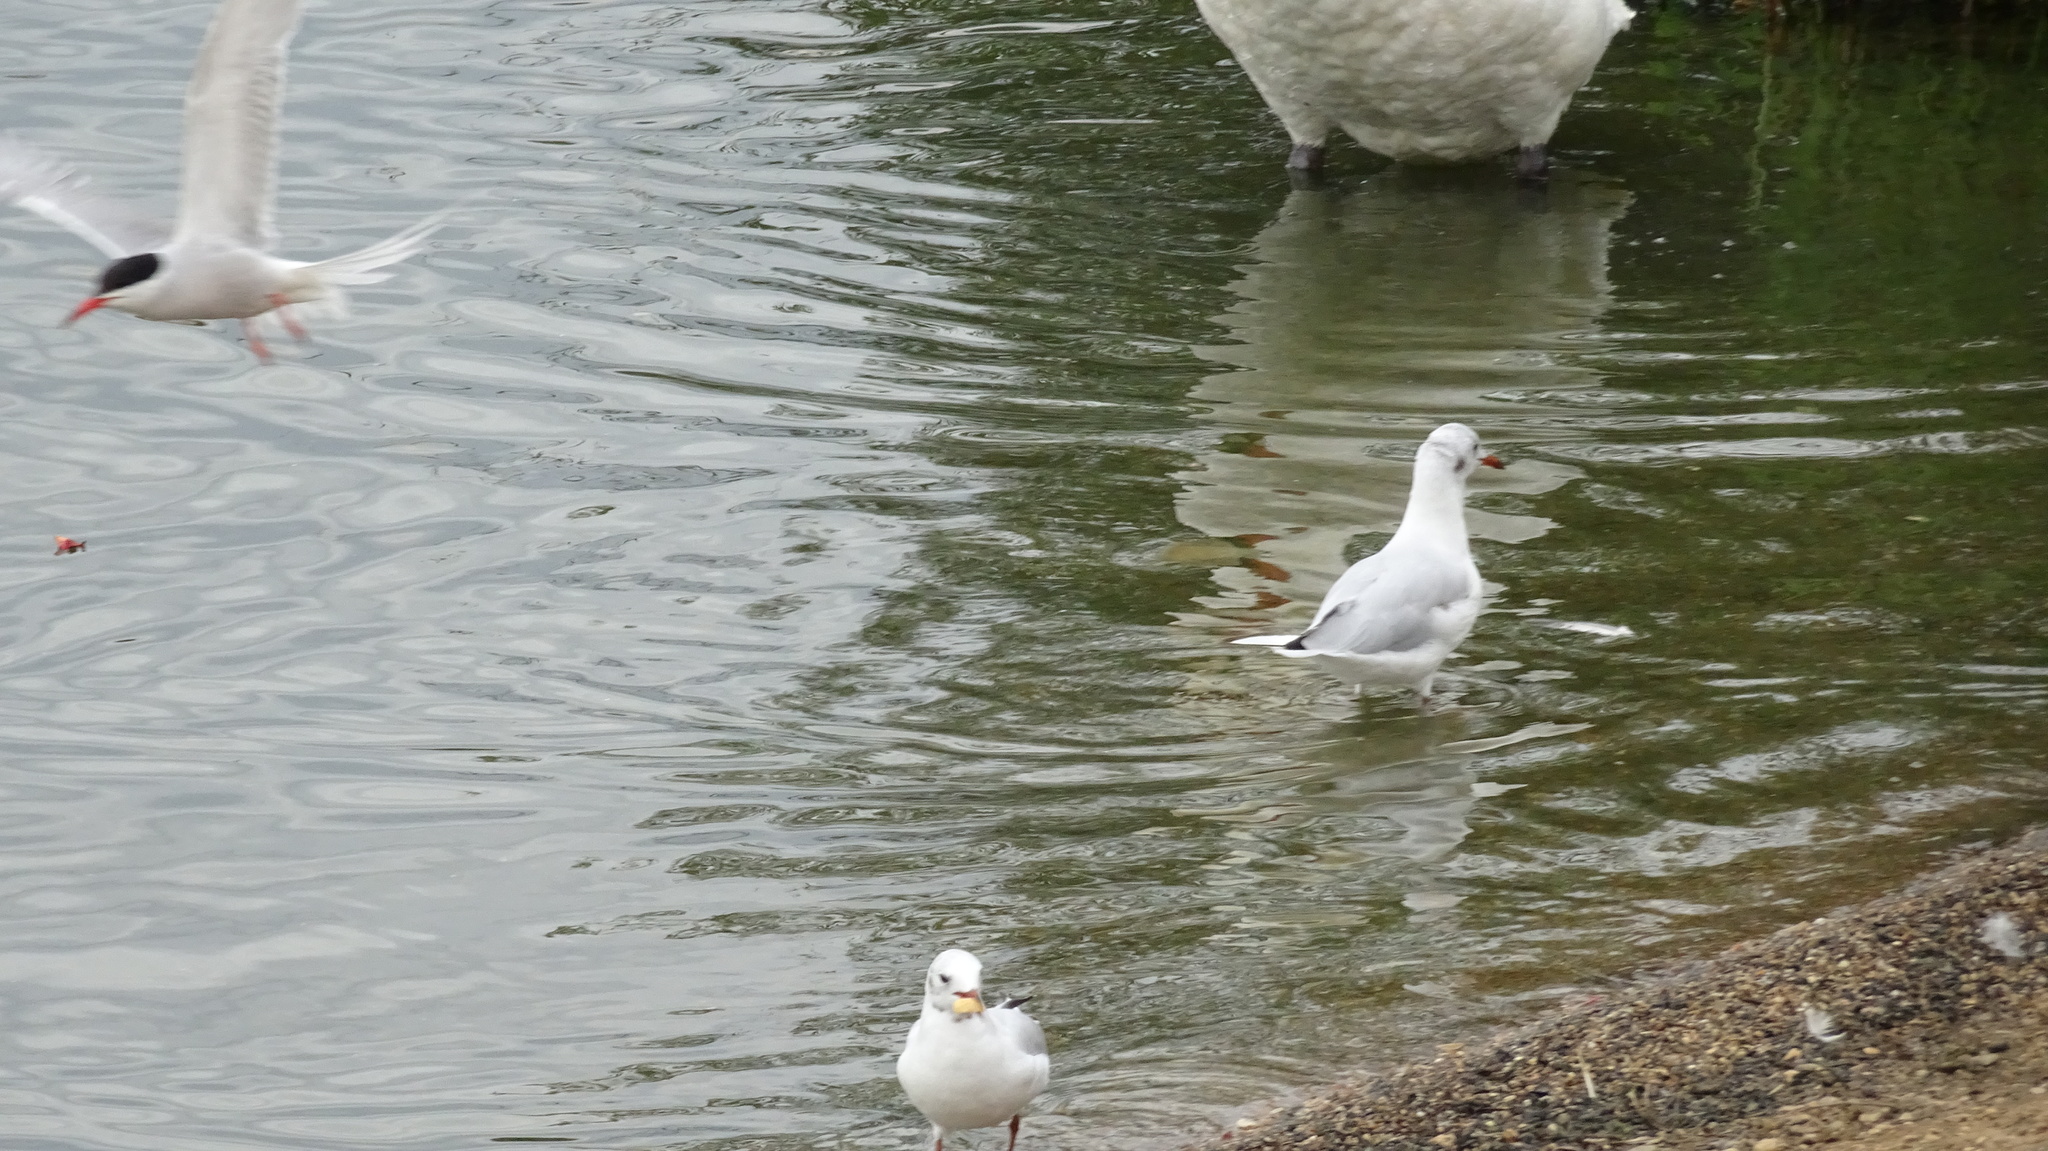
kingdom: Animalia
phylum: Chordata
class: Aves
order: Charadriiformes
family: Laridae
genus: Chroicocephalus
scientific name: Chroicocephalus ridibundus
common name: Black-headed gull
